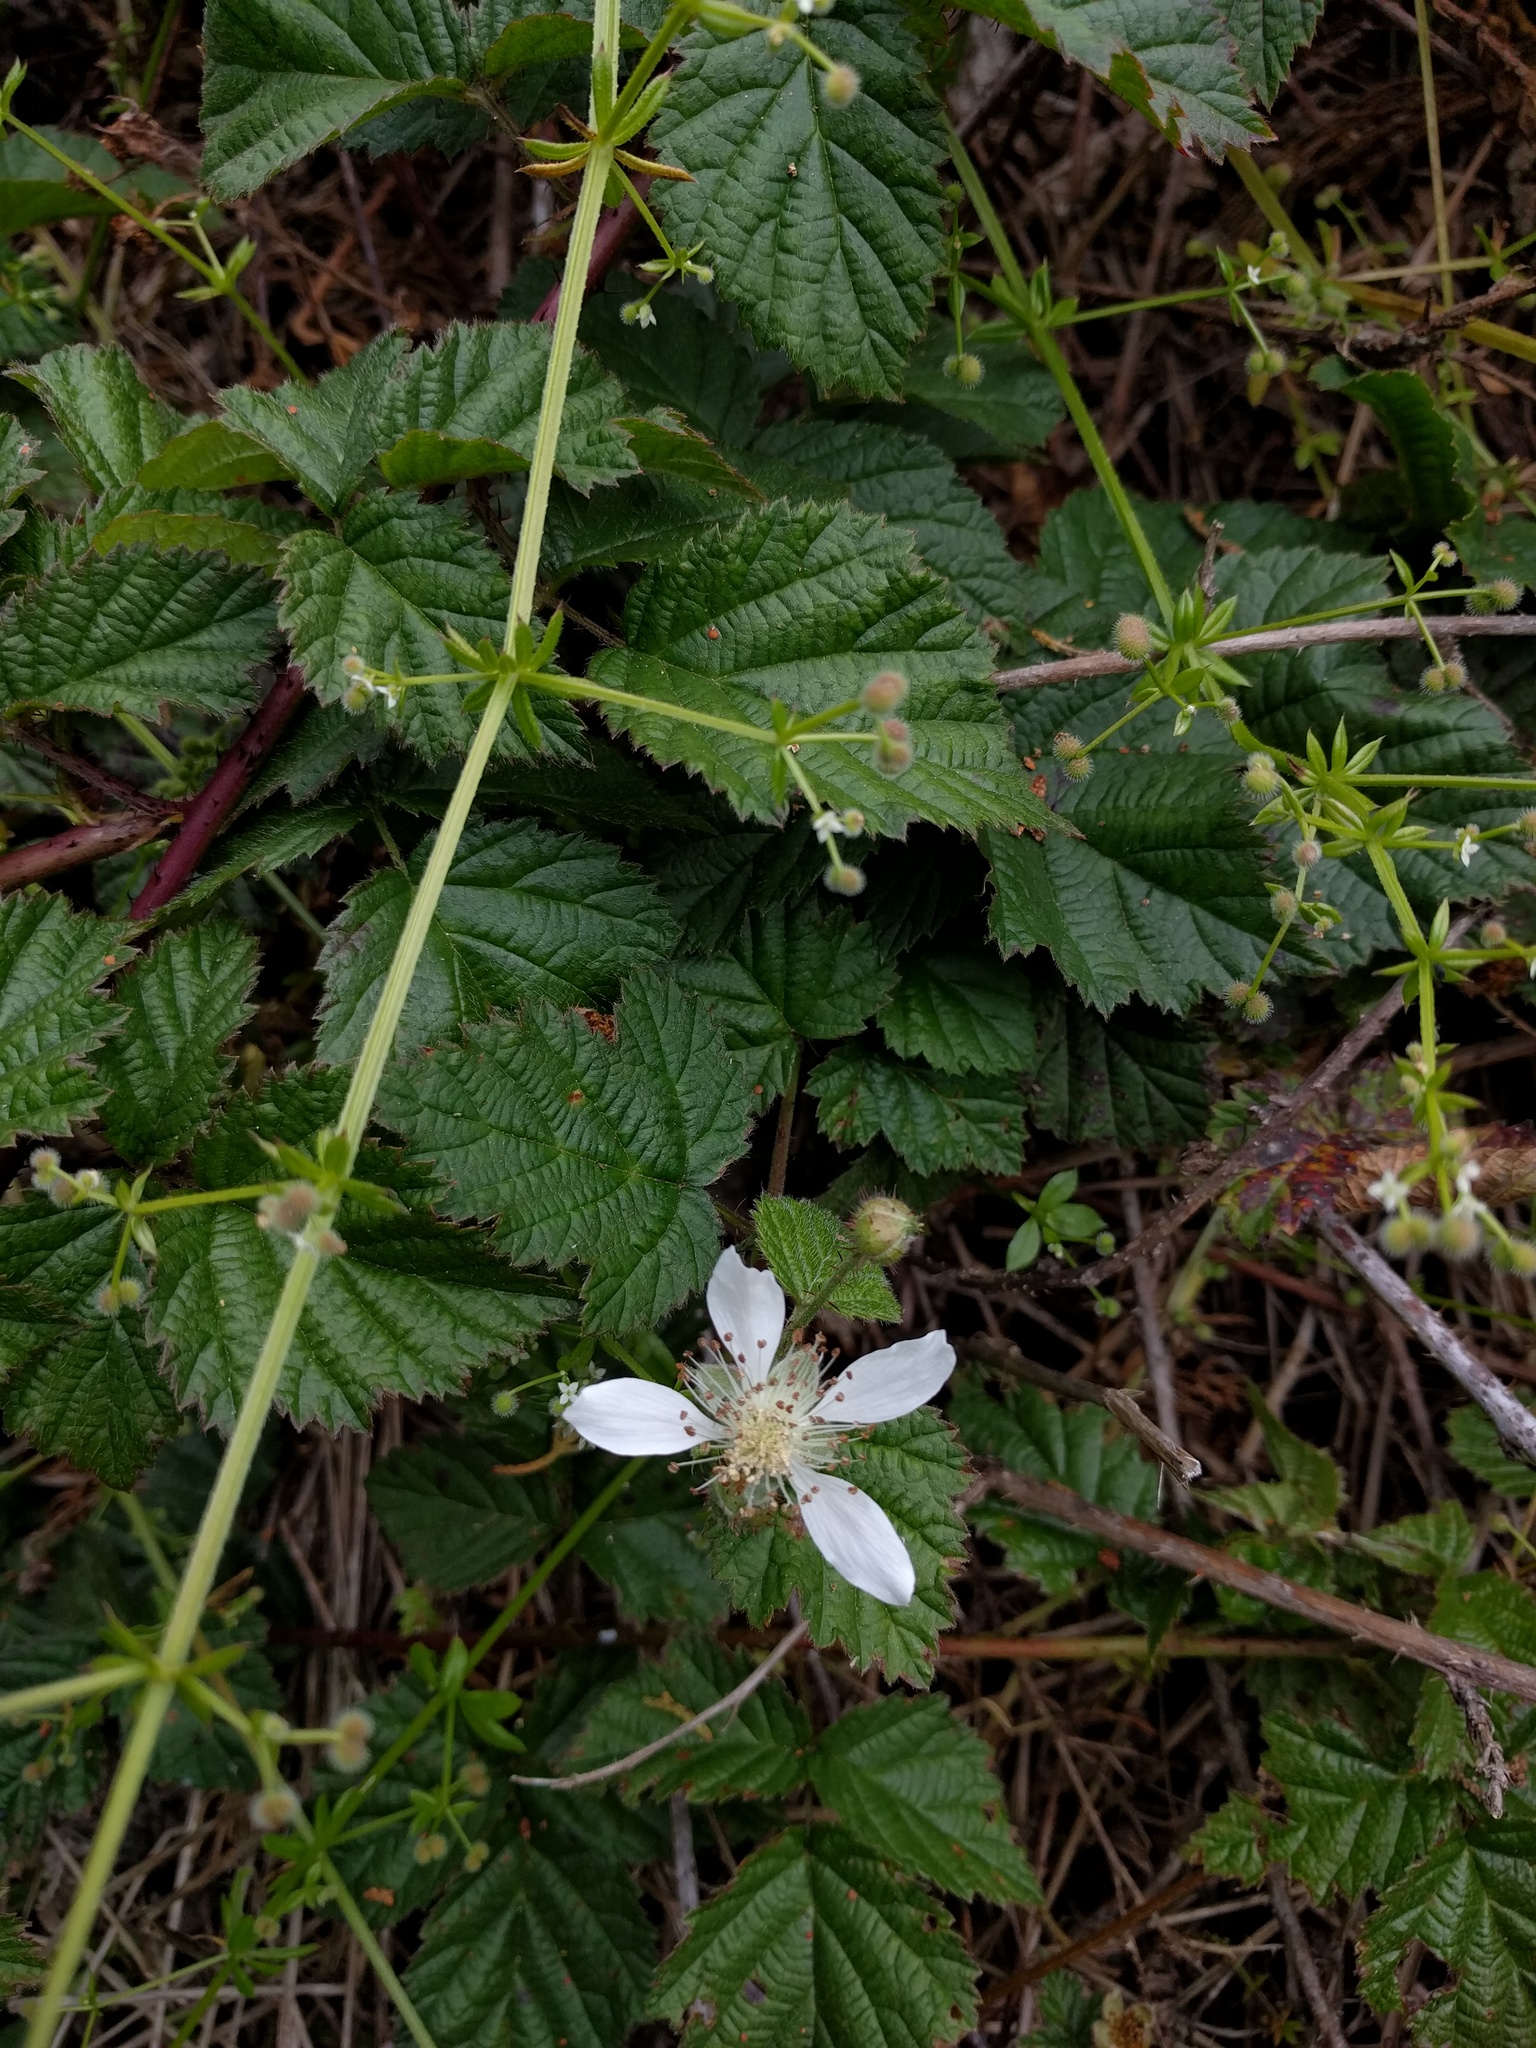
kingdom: Plantae
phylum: Tracheophyta
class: Magnoliopsida
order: Rosales
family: Rosaceae
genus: Rubus
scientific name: Rubus ursinus
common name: Pacific blackberry
